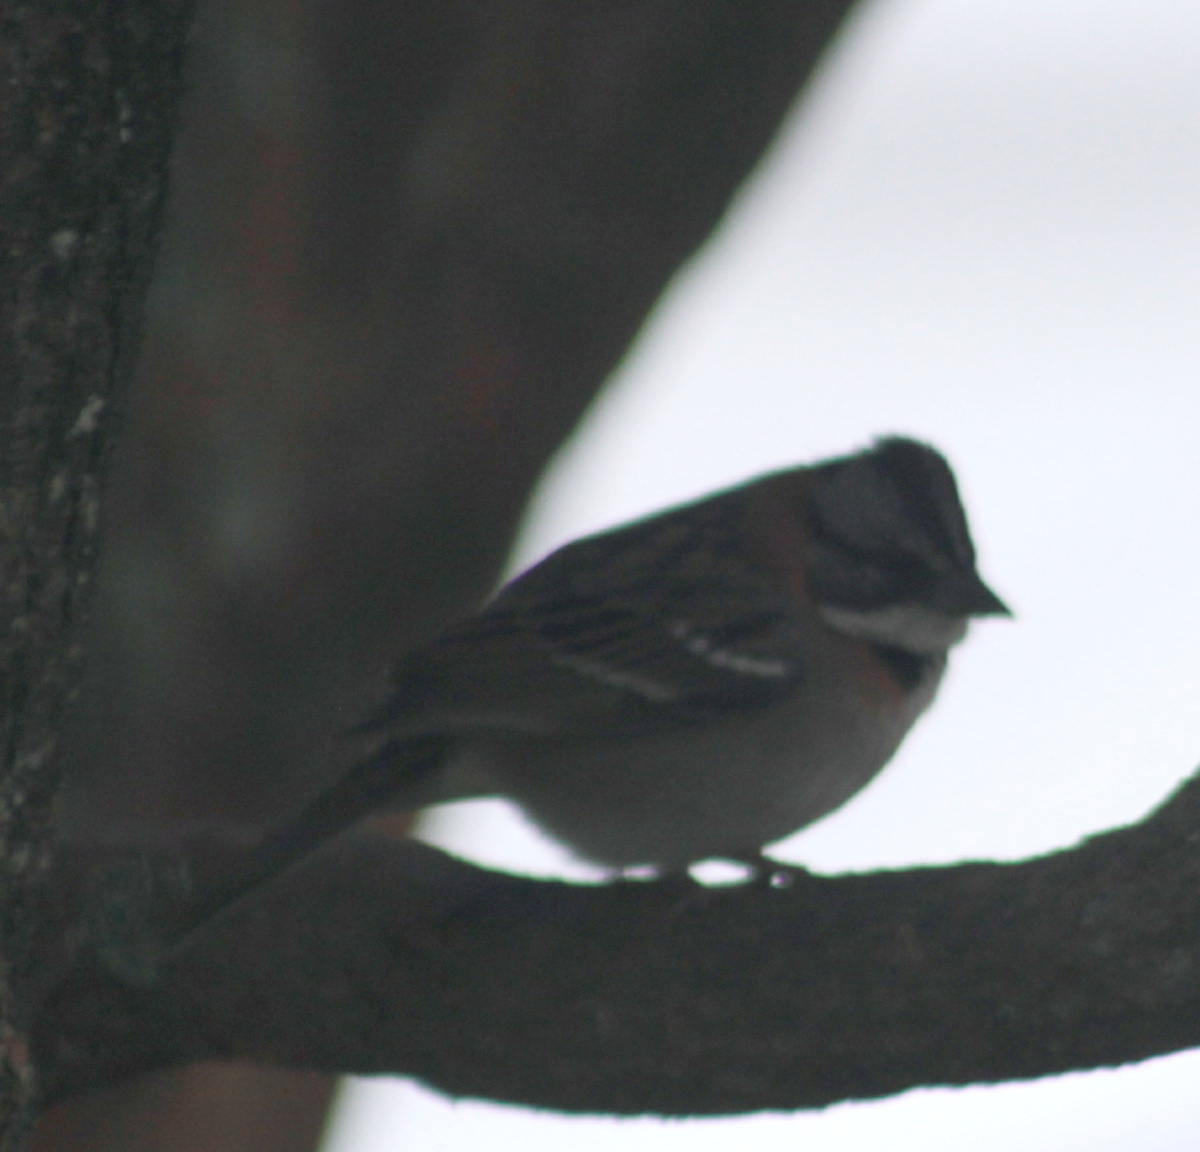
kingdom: Animalia
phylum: Chordata
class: Aves
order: Passeriformes
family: Passerellidae
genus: Zonotrichia
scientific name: Zonotrichia capensis
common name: Rufous-collared sparrow
